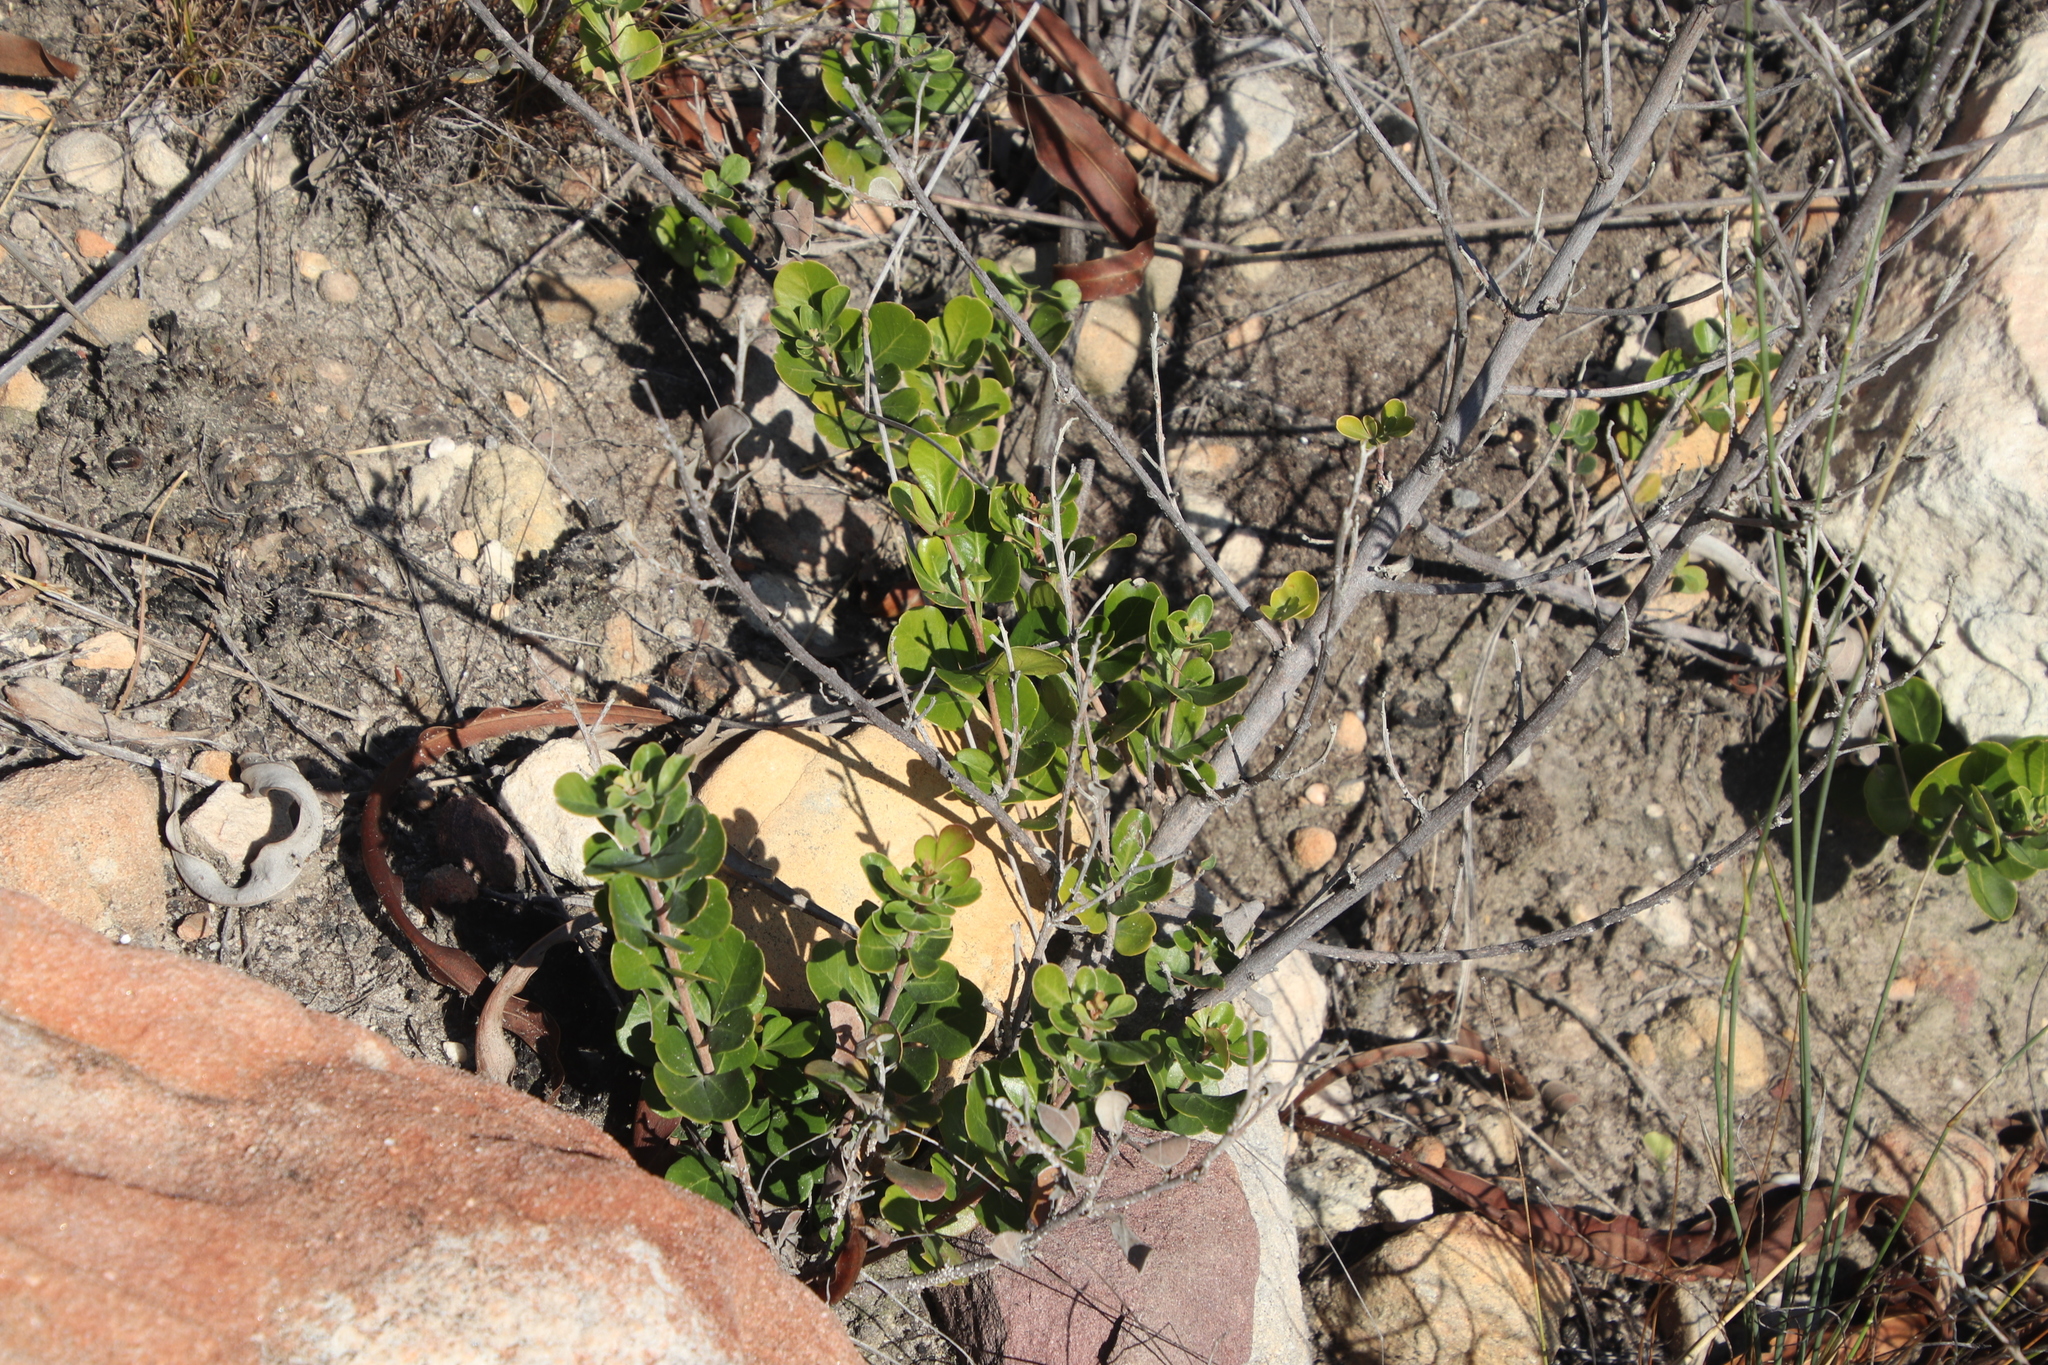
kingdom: Plantae
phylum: Tracheophyta
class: Magnoliopsida
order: Sapindales
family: Anacardiaceae
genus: Searsia
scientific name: Searsia lucida
